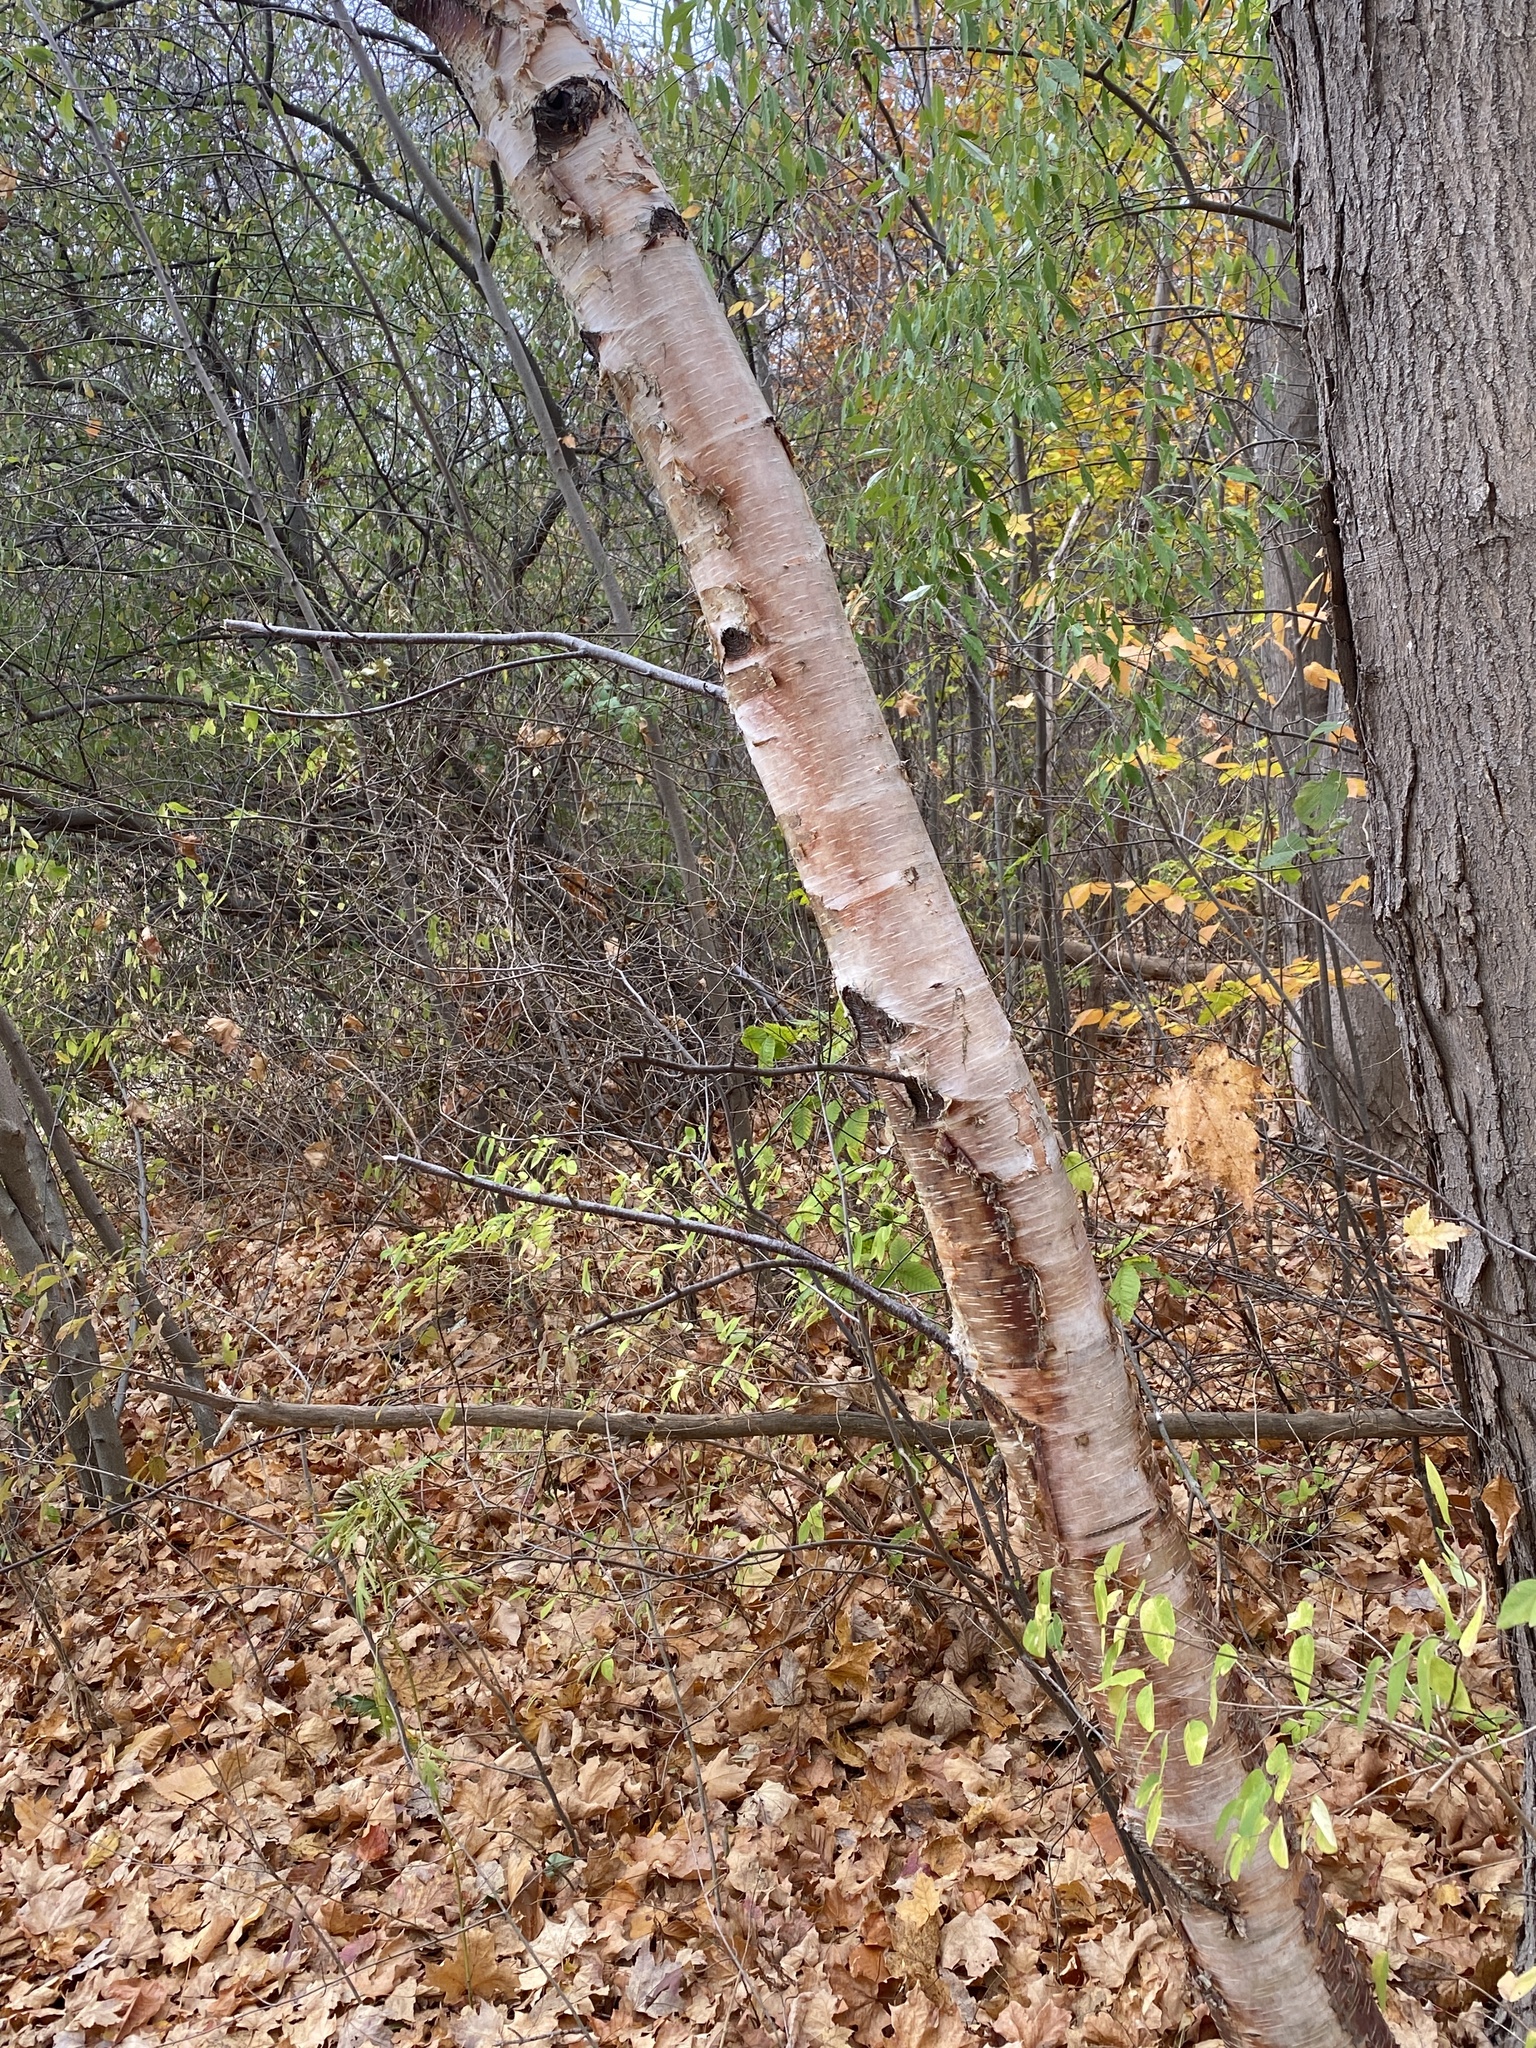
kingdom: Plantae
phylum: Tracheophyta
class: Magnoliopsida
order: Fagales
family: Betulaceae
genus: Betula
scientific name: Betula papyrifera
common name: Paper birch
